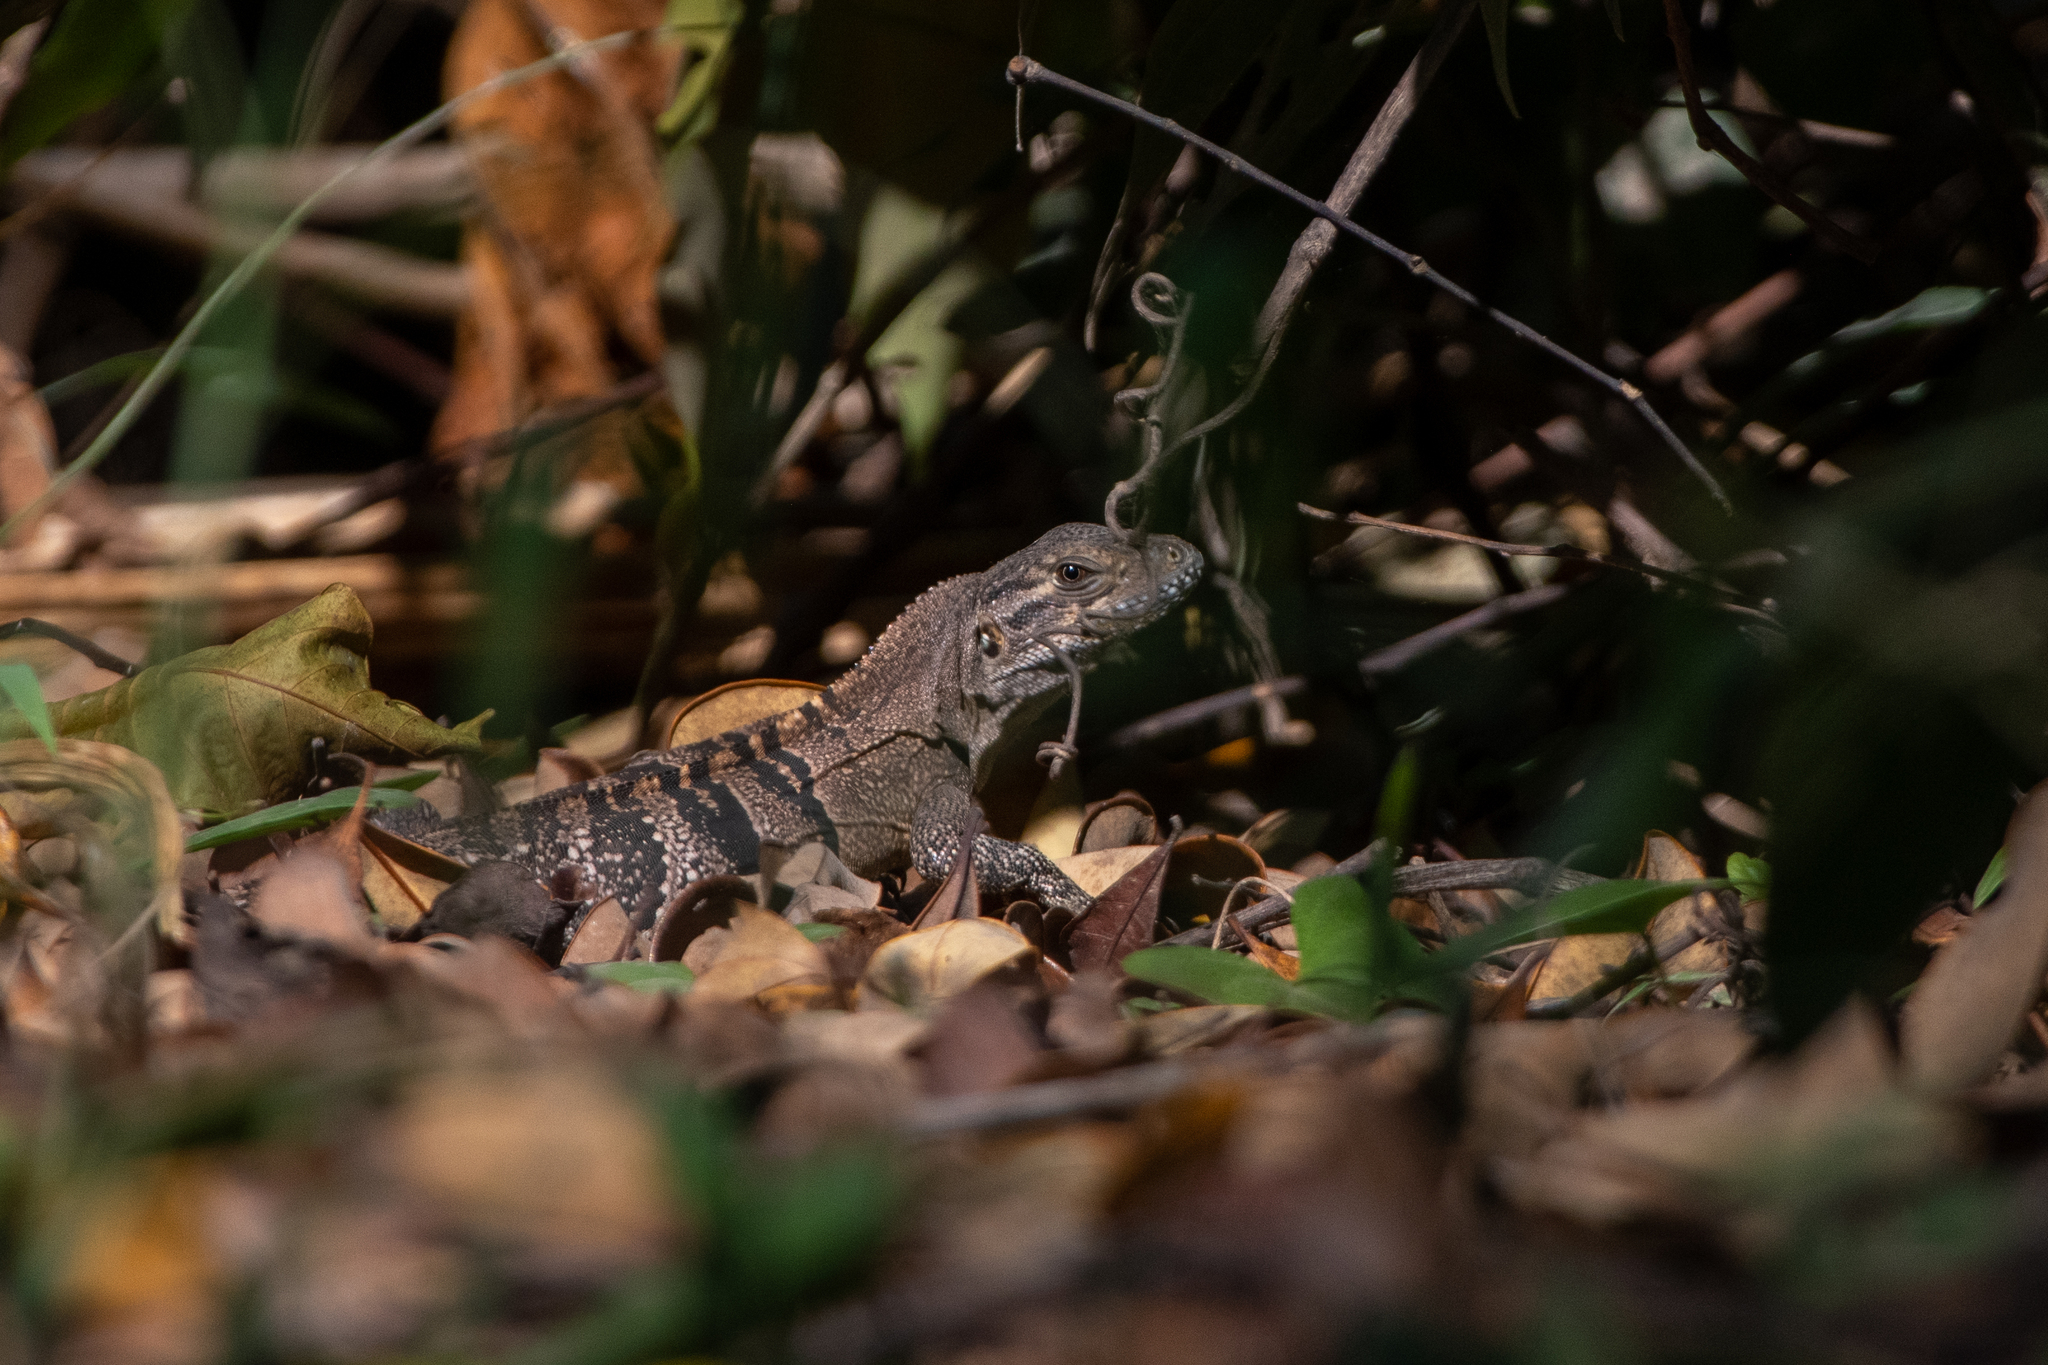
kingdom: Animalia
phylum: Chordata
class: Squamata
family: Iguanidae
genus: Ctenosaura
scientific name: Ctenosaura similis
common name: Black spiny-tailed iguana
